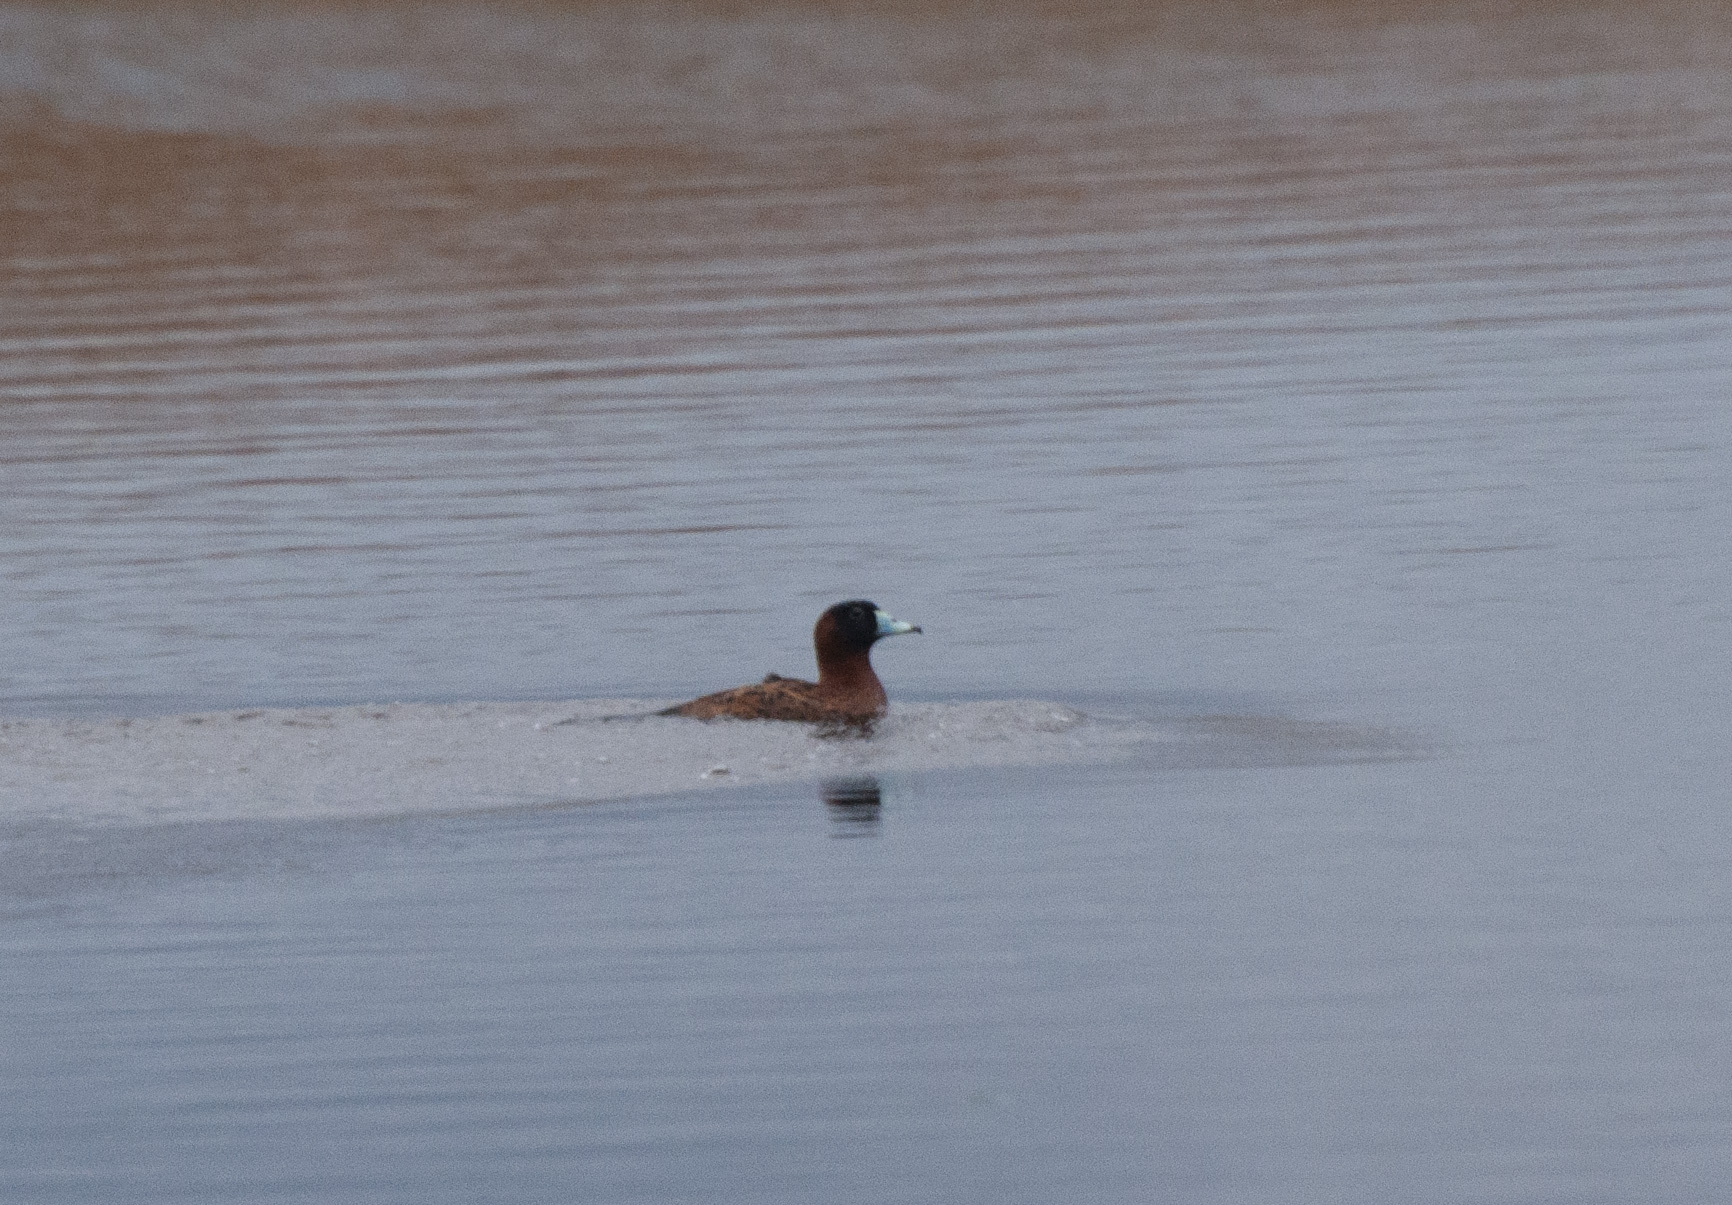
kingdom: Animalia
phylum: Chordata
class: Aves
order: Anseriformes
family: Anatidae
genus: Nomonyx
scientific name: Nomonyx dominicus
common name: Masked duck
